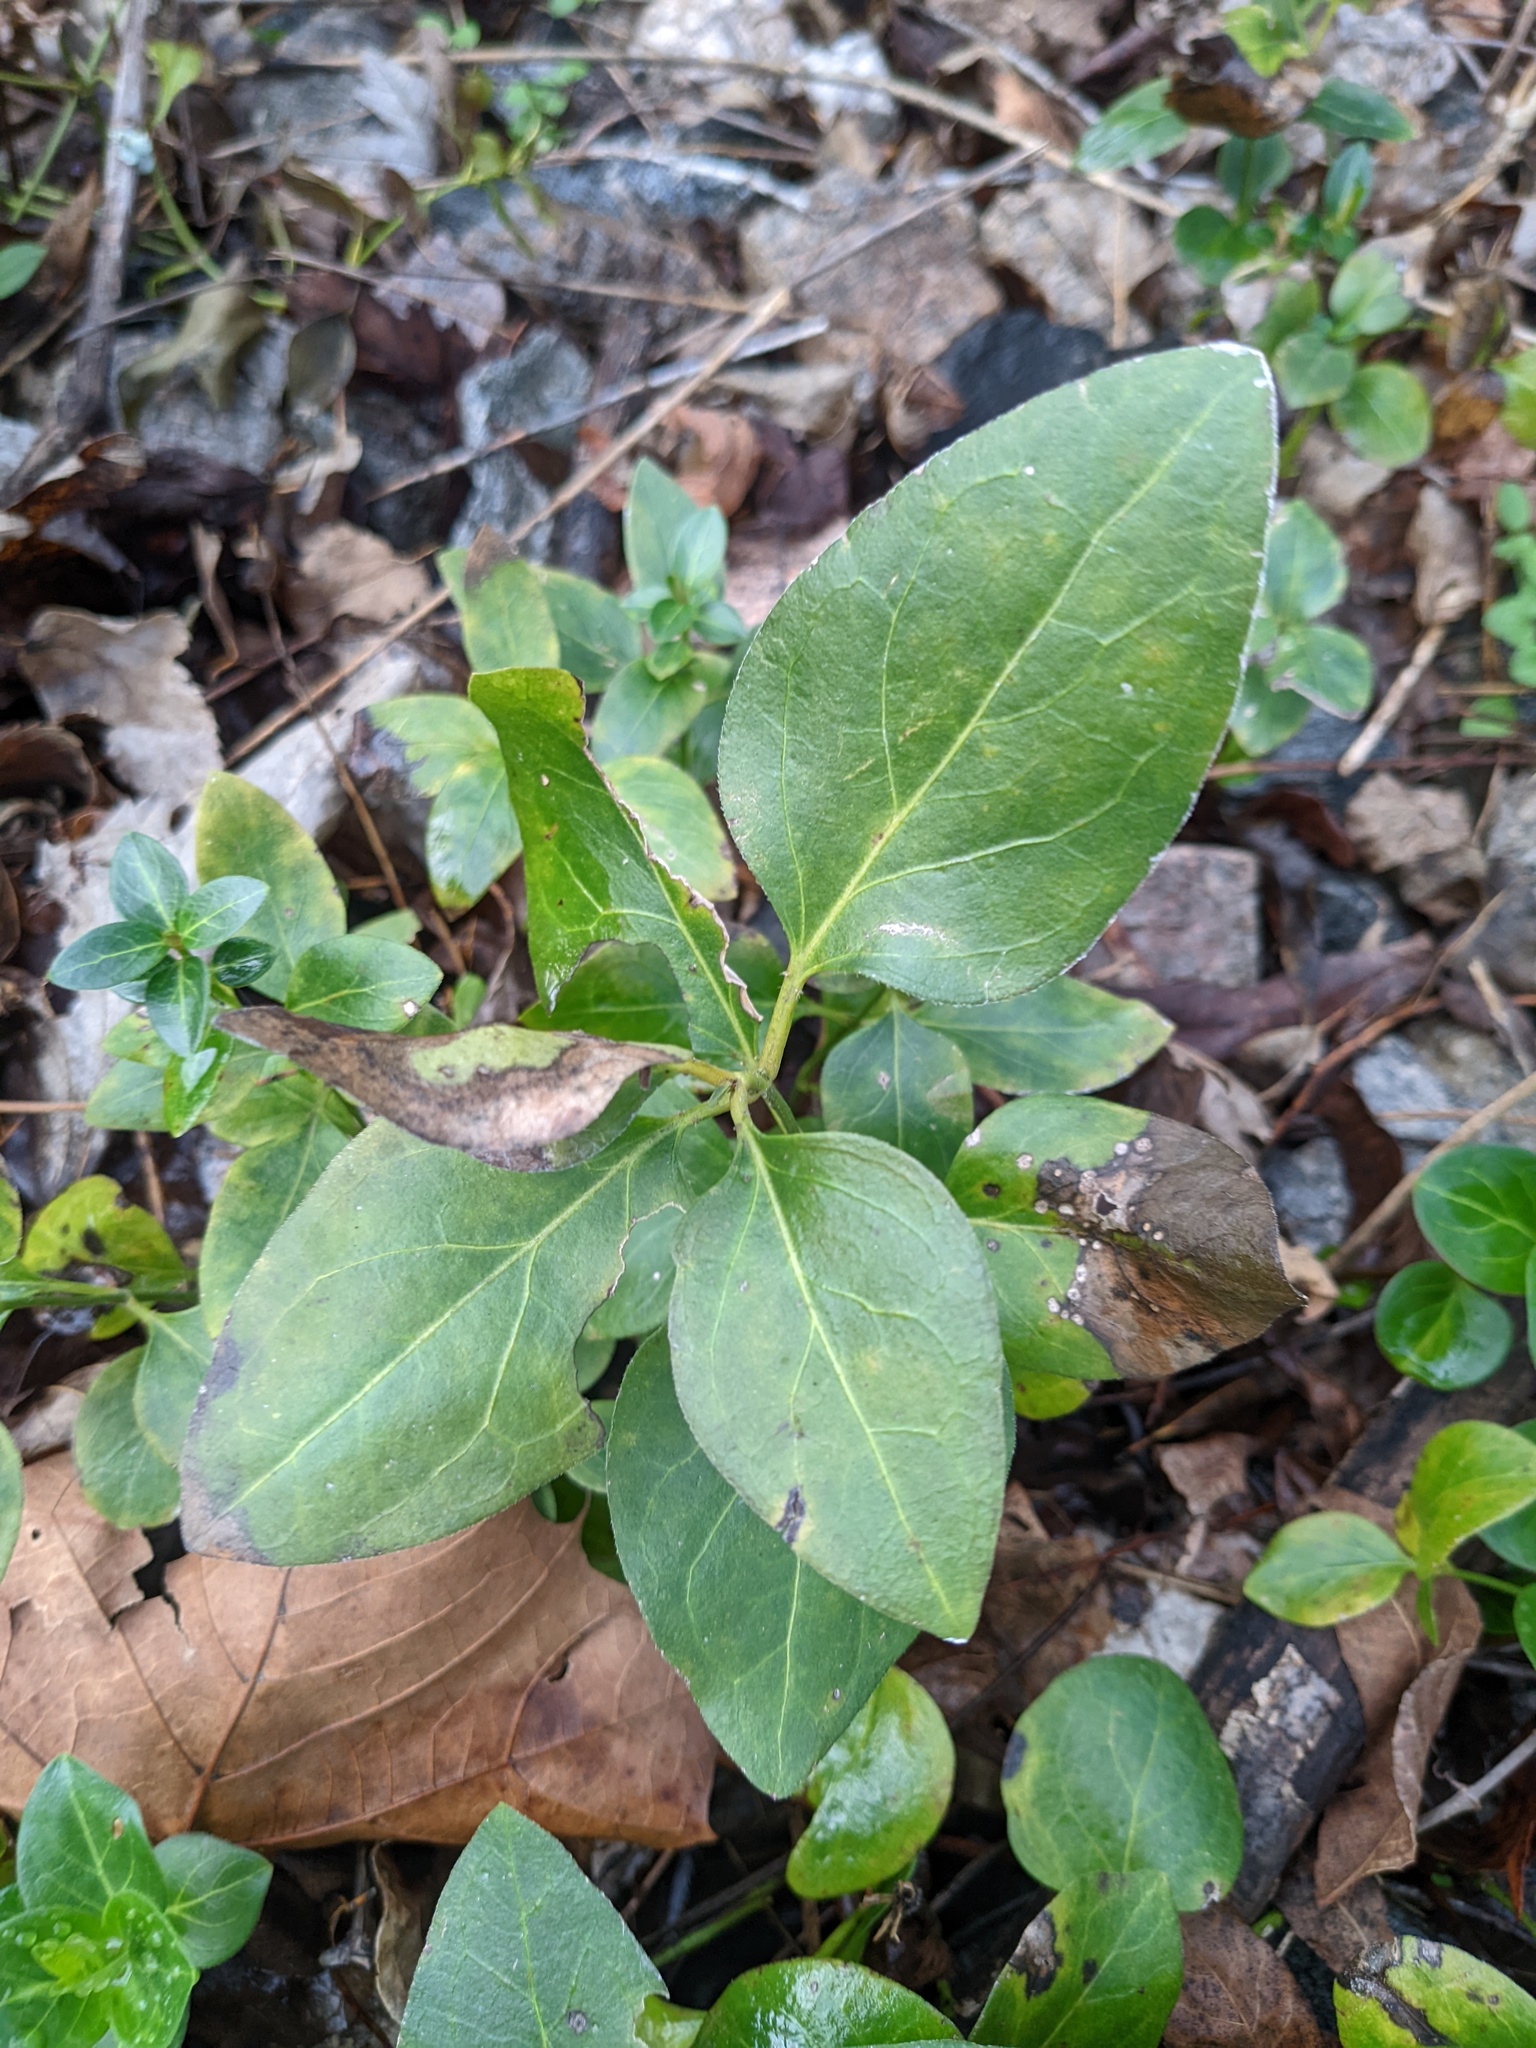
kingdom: Plantae
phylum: Tracheophyta
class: Magnoliopsida
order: Gentianales
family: Apocynaceae
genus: Vinca
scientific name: Vinca major
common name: Greater periwinkle
